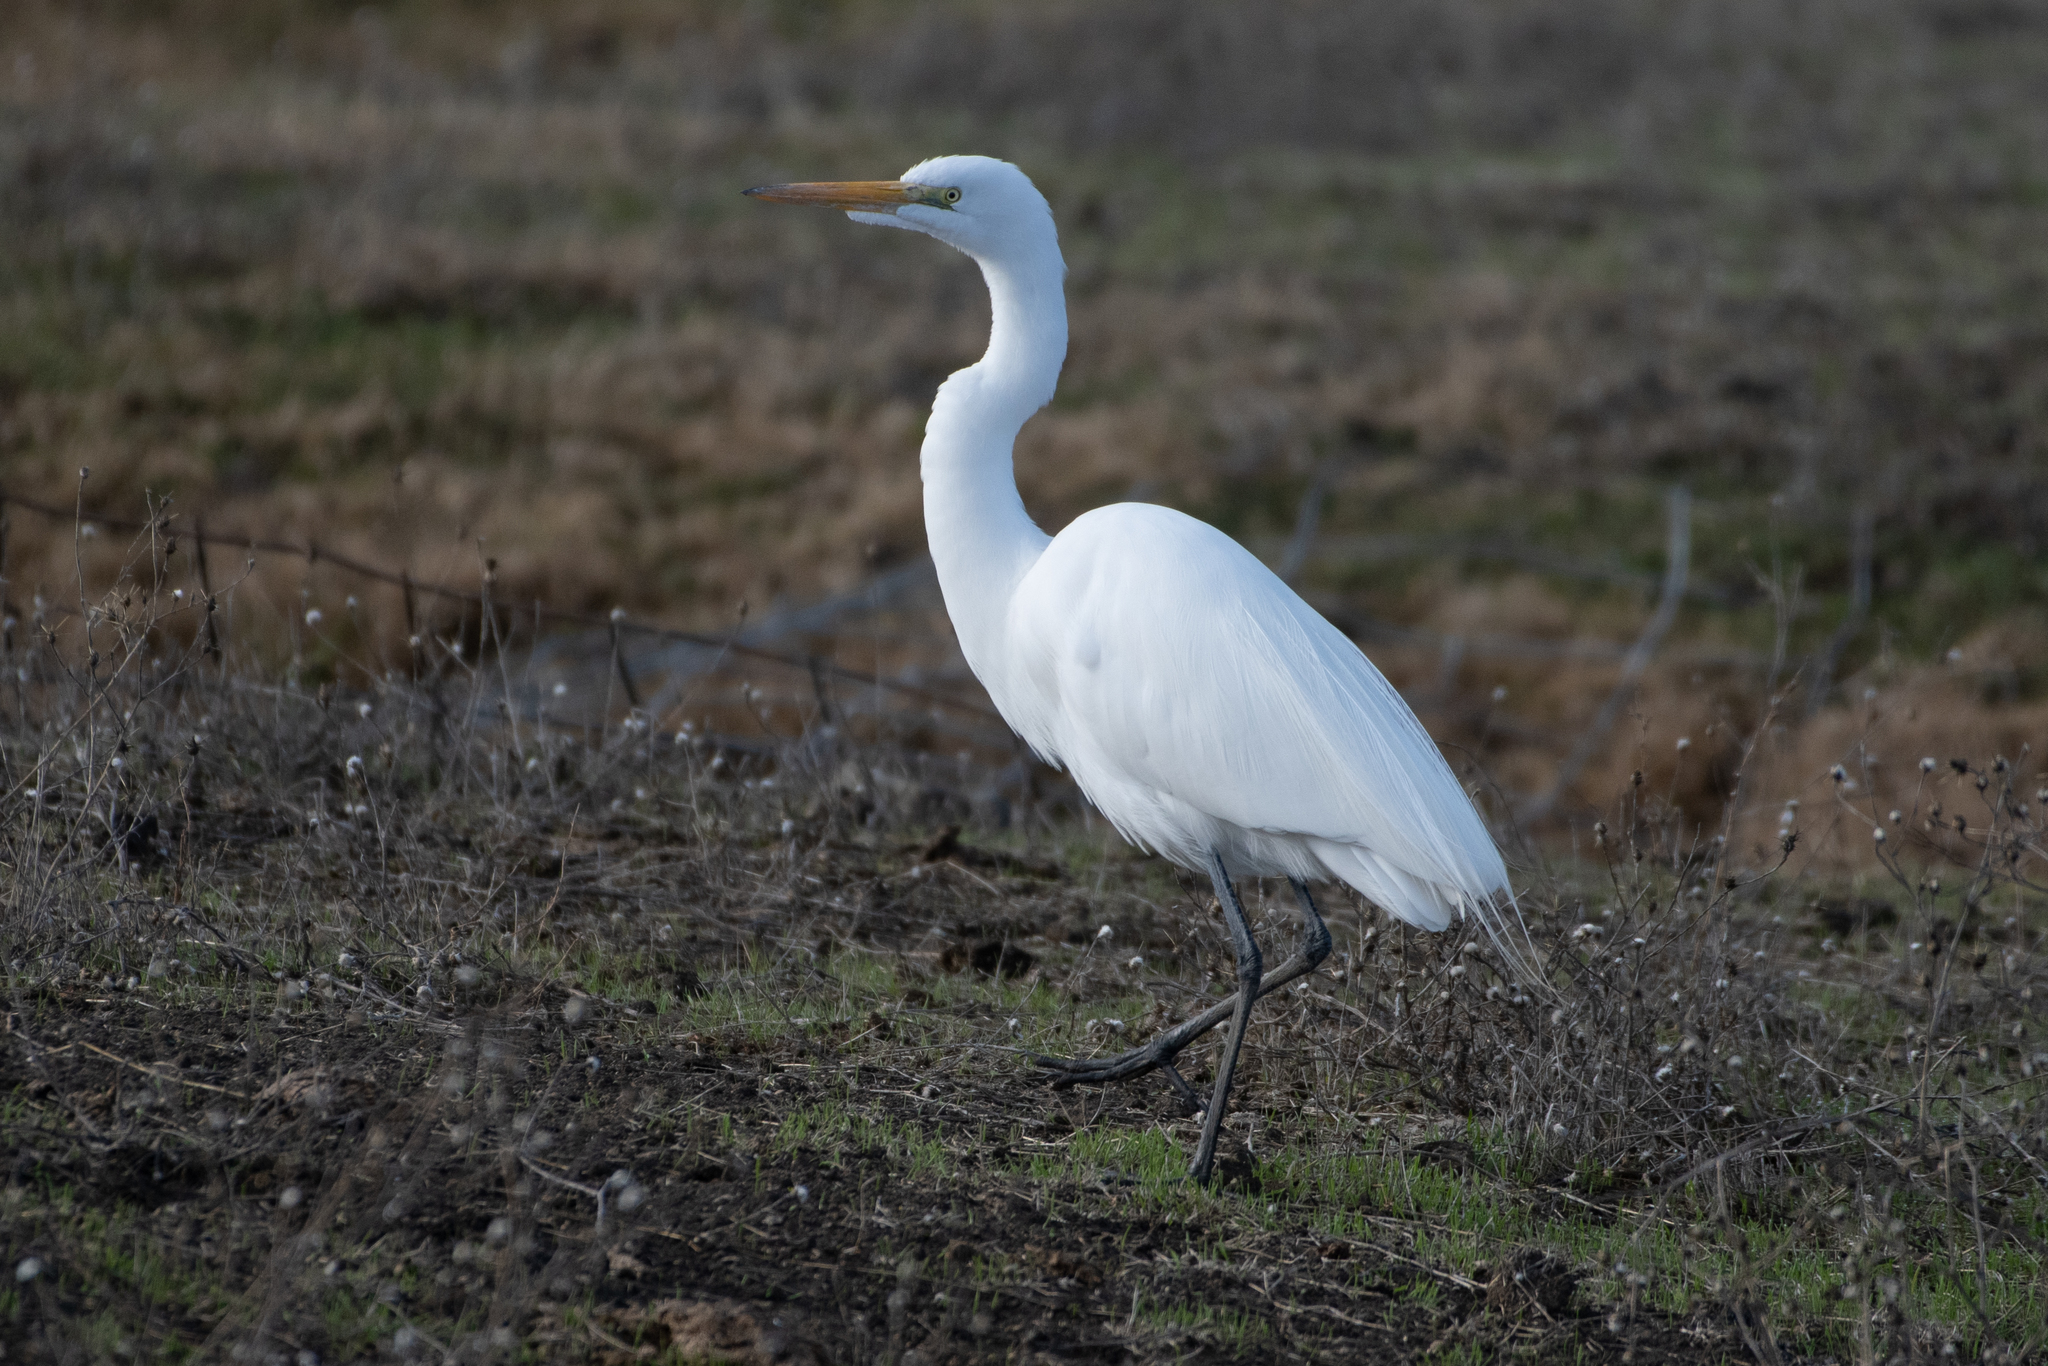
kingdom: Animalia
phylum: Chordata
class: Aves
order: Pelecaniformes
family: Ardeidae
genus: Ardea
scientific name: Ardea alba
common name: Great egret
